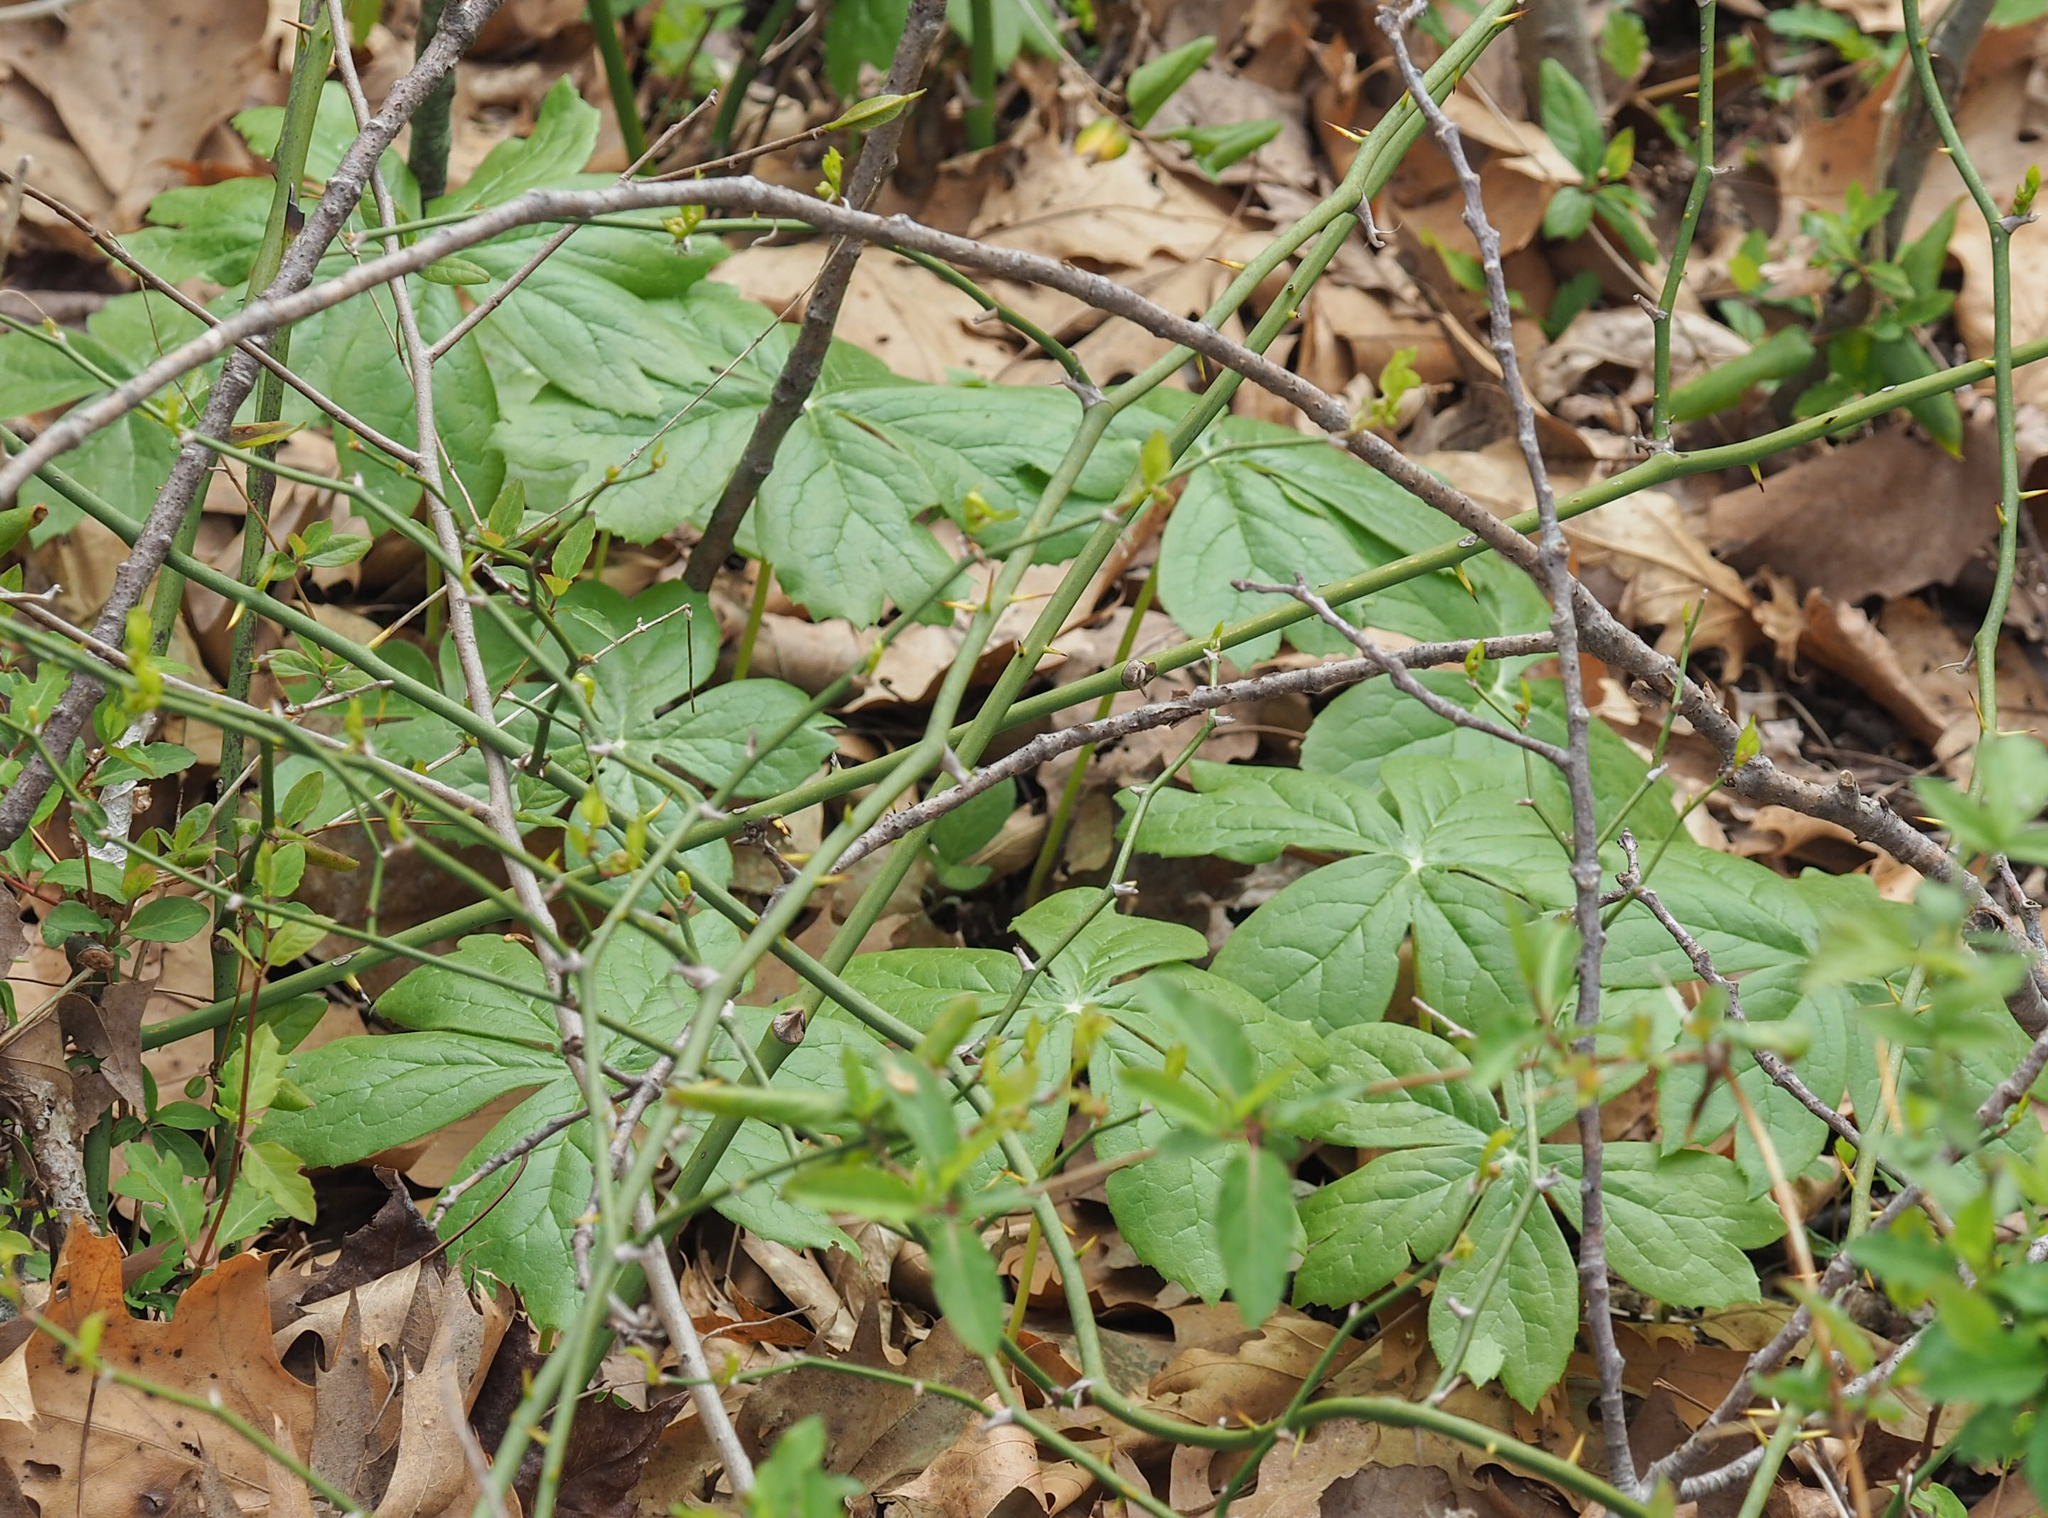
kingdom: Plantae
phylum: Tracheophyta
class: Magnoliopsida
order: Ranunculales
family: Berberidaceae
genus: Podophyllum
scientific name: Podophyllum peltatum
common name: Wild mandrake
